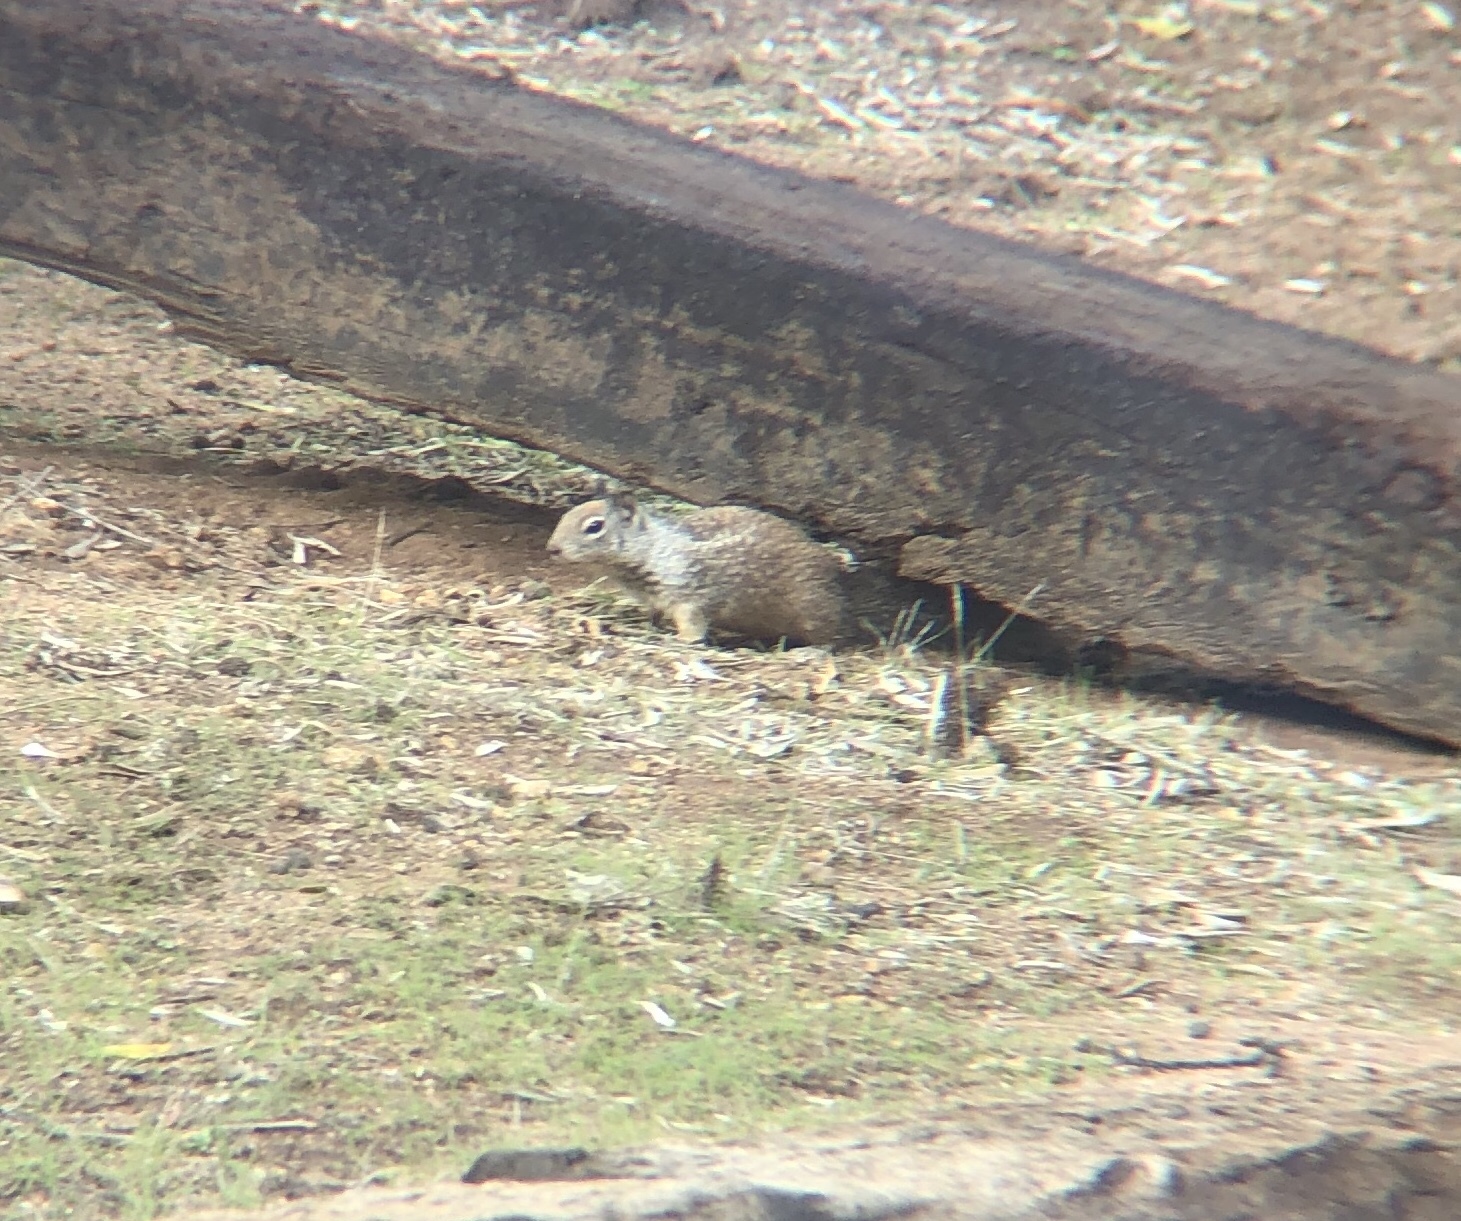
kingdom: Animalia
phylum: Chordata
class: Mammalia
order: Rodentia
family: Sciuridae
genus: Otospermophilus
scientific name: Otospermophilus beecheyi
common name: California ground squirrel
